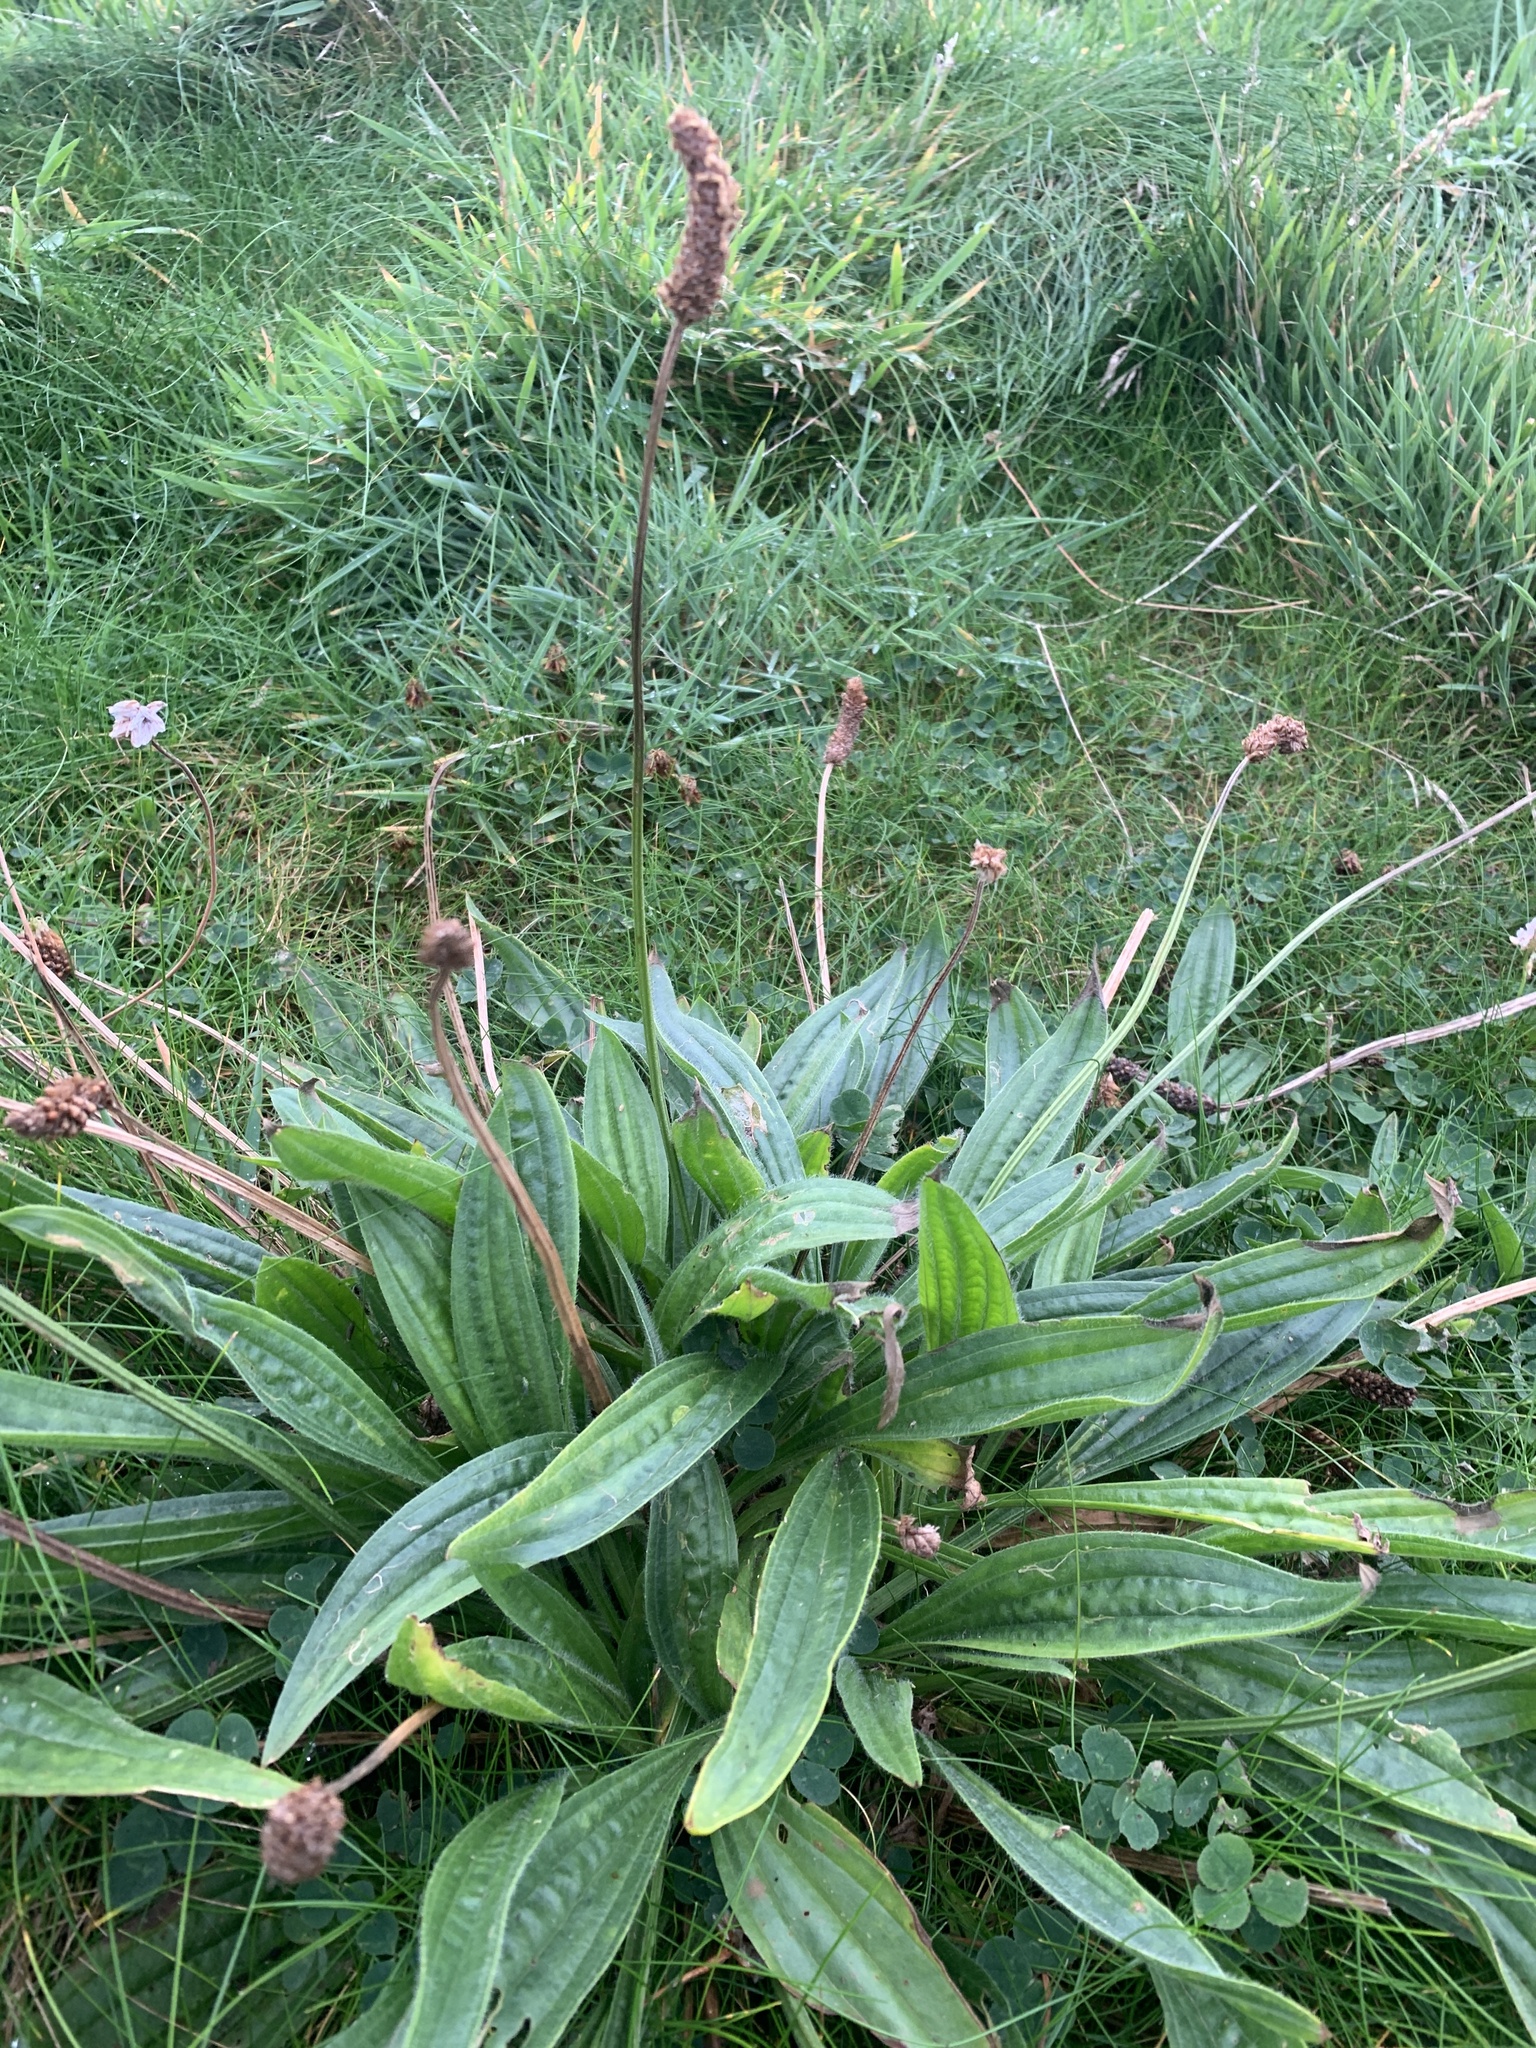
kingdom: Plantae
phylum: Tracheophyta
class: Magnoliopsida
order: Lamiales
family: Plantaginaceae
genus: Plantago
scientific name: Plantago lanceolata
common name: Ribwort plantain
